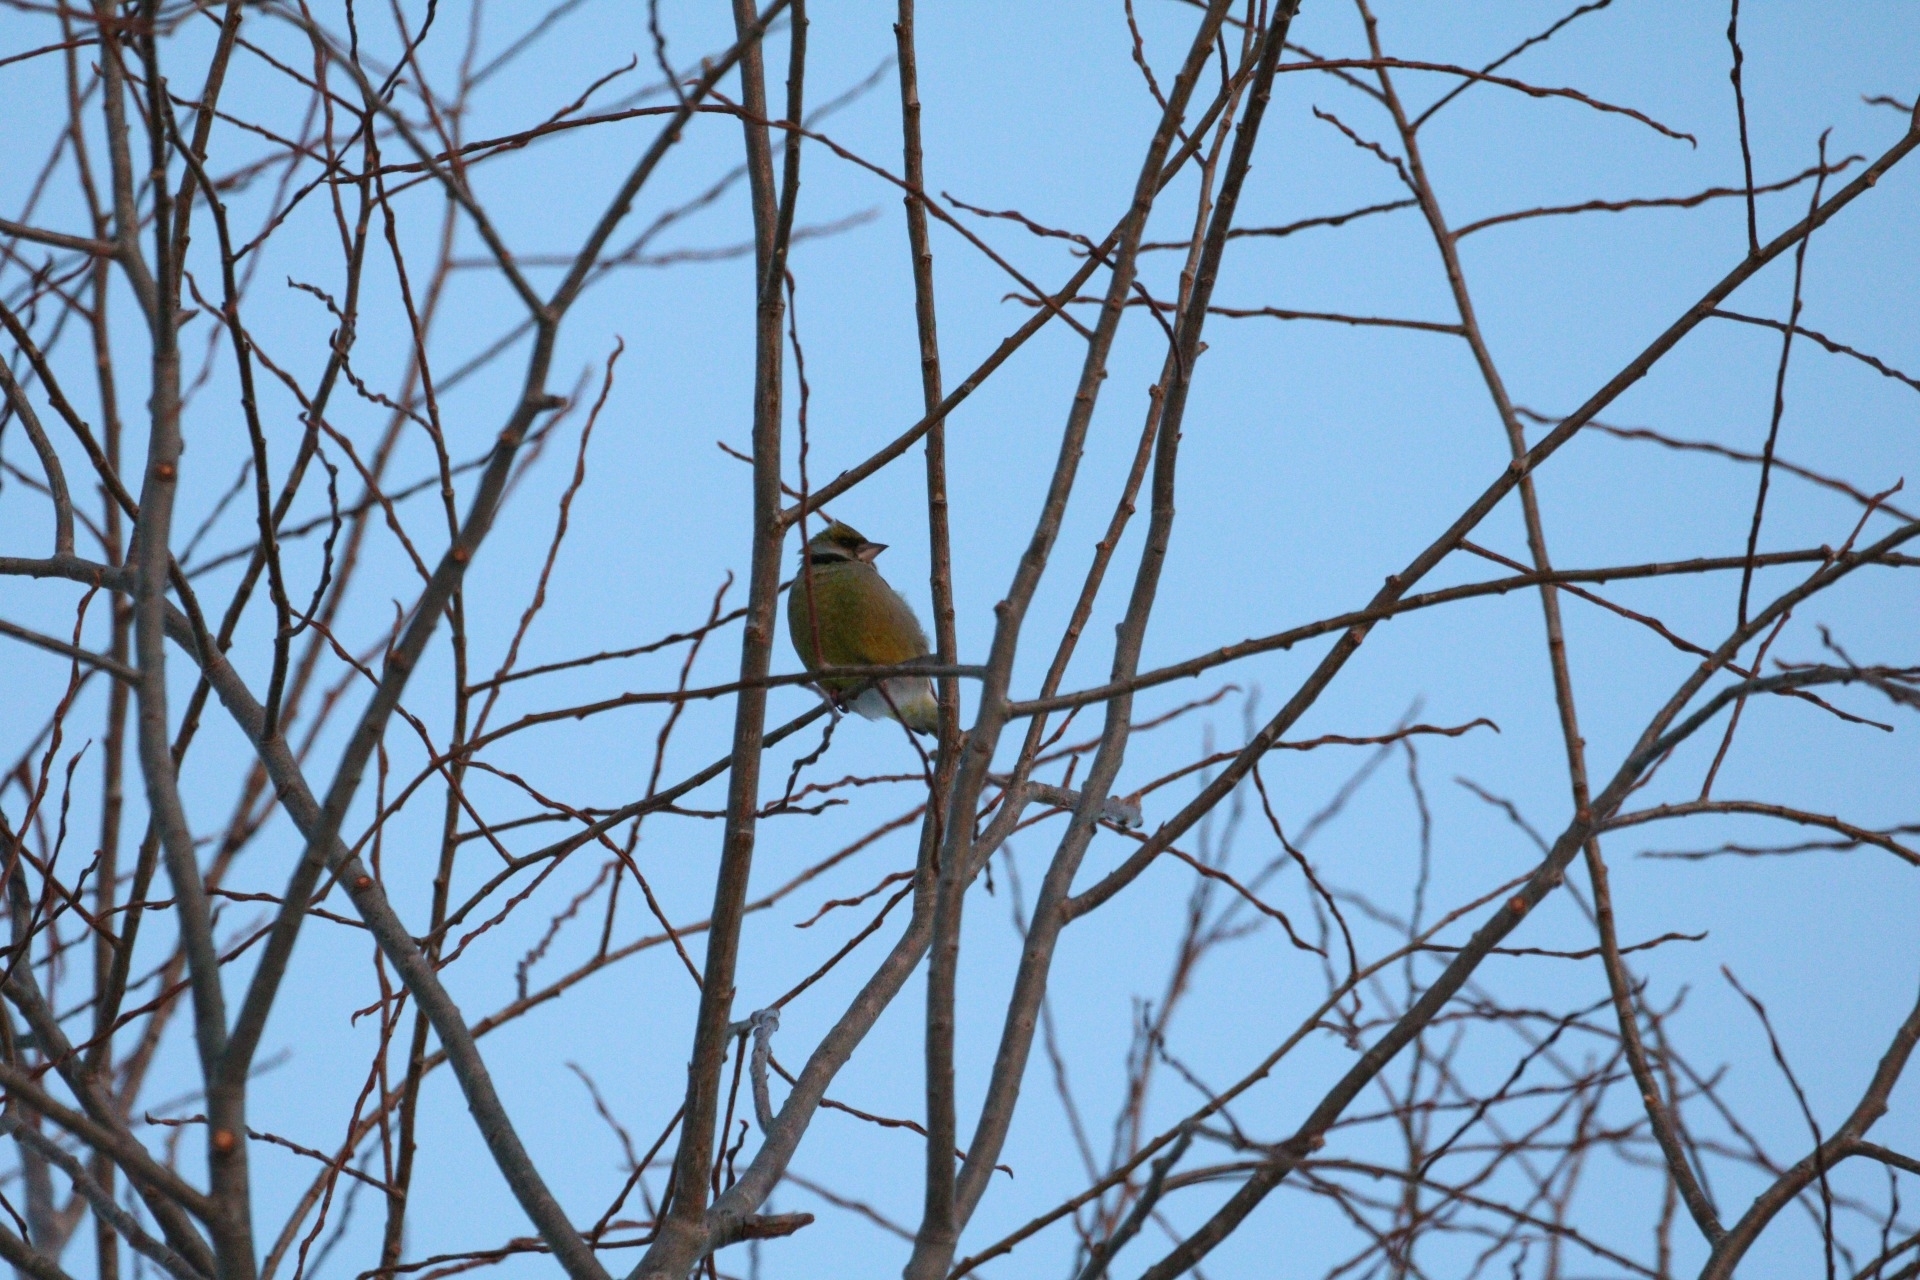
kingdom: Plantae
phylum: Tracheophyta
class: Liliopsida
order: Poales
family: Poaceae
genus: Chloris
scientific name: Chloris chloris
